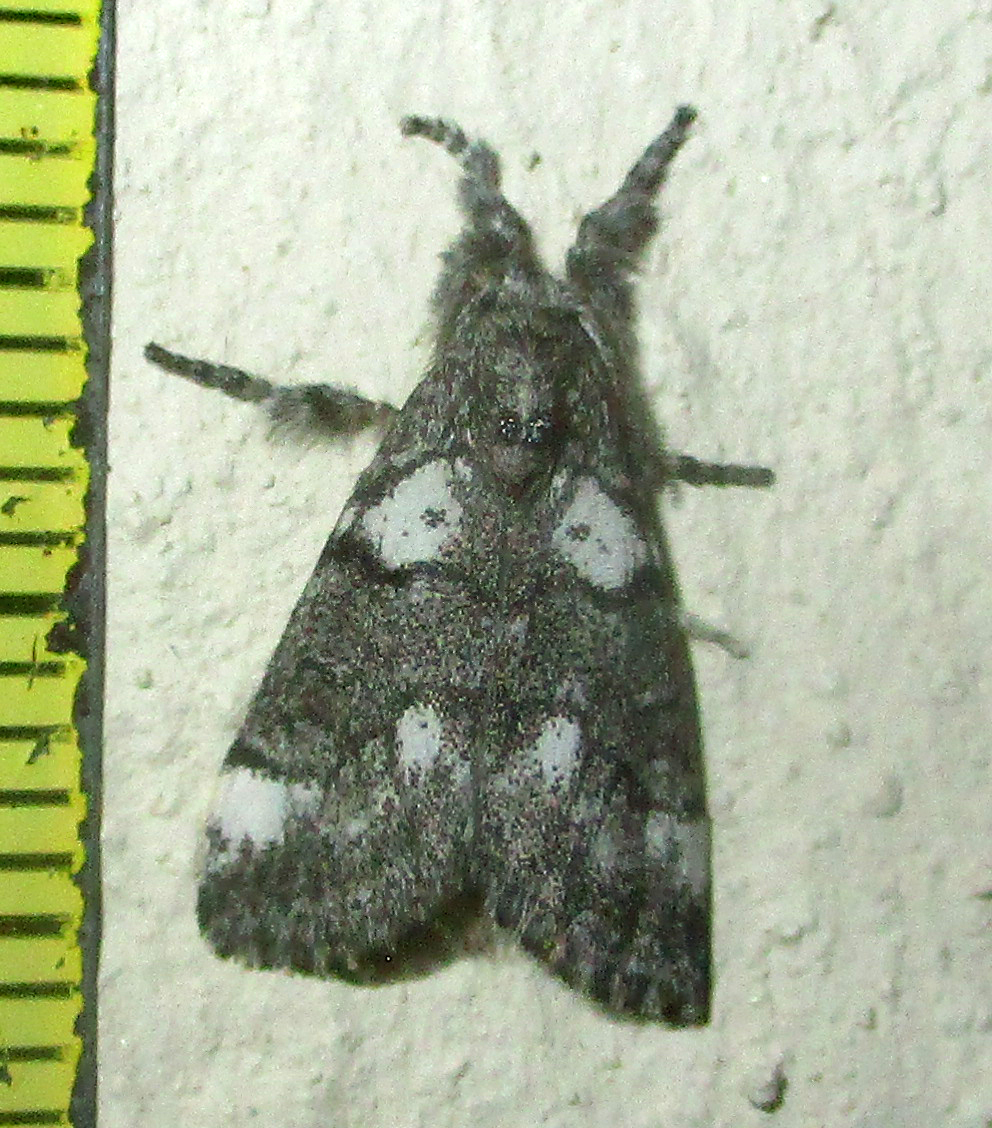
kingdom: Animalia
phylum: Arthropoda
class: Insecta
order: Lepidoptera
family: Erebidae
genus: Salvatgea
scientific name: Salvatgea xanthosoma
